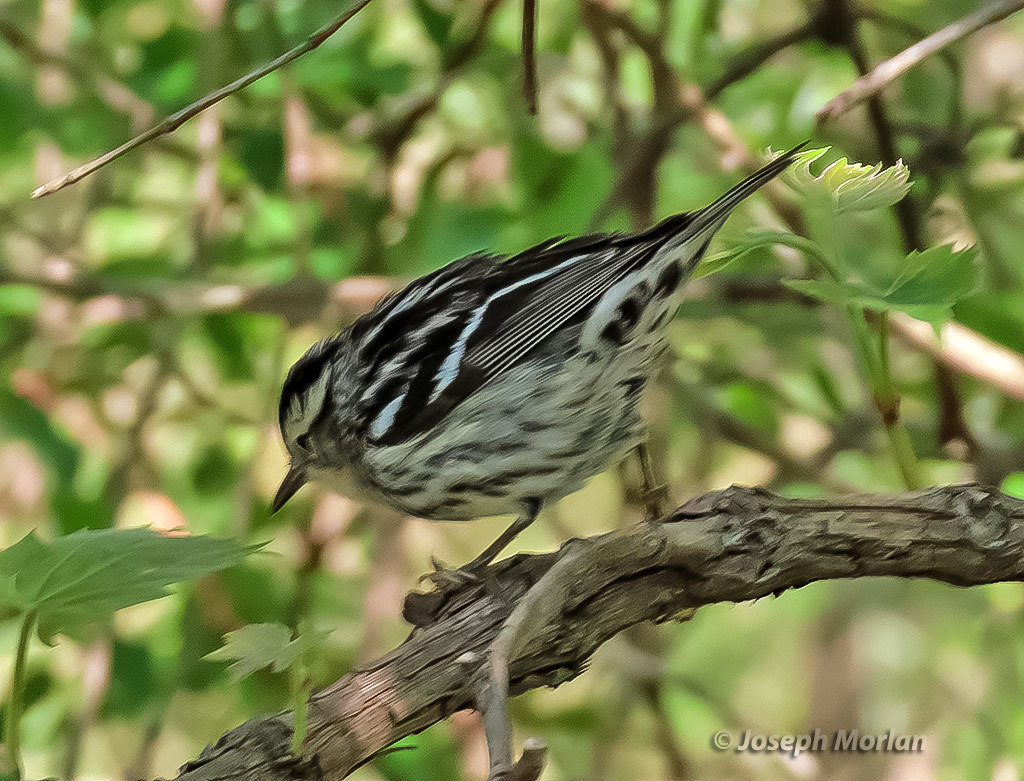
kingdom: Animalia
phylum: Chordata
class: Aves
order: Passeriformes
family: Parulidae
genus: Mniotilta
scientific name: Mniotilta varia
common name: Black-and-white warbler
